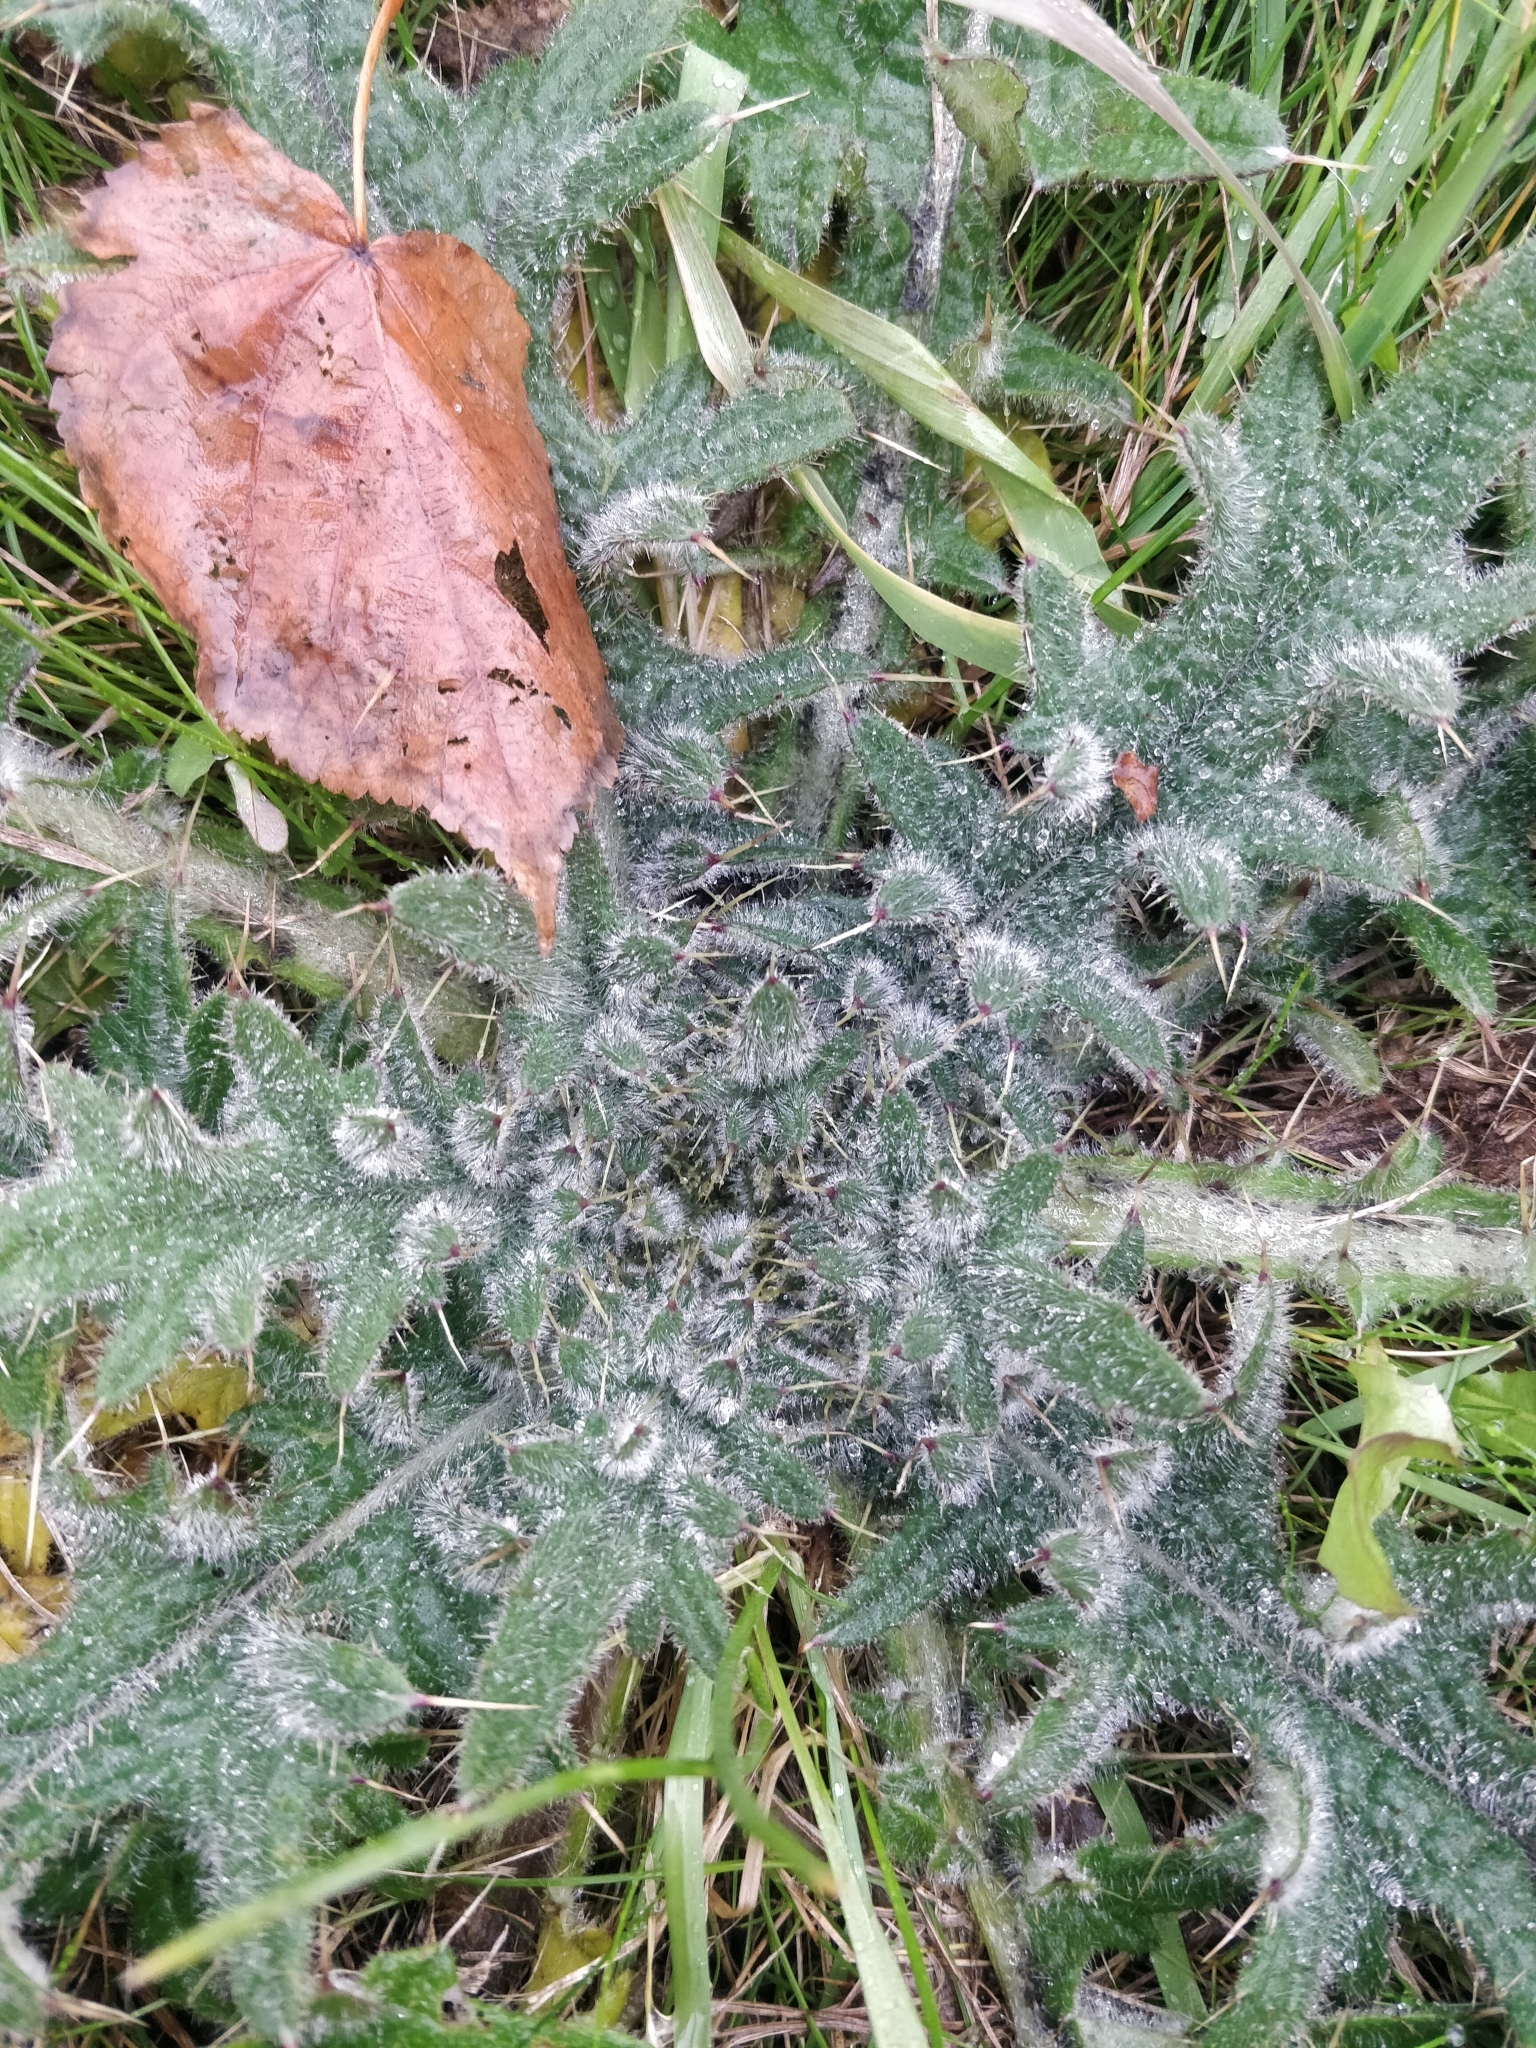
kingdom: Plantae
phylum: Tracheophyta
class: Magnoliopsida
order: Asterales
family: Asteraceae
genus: Cirsium
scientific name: Cirsium vulgare
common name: Bull thistle
